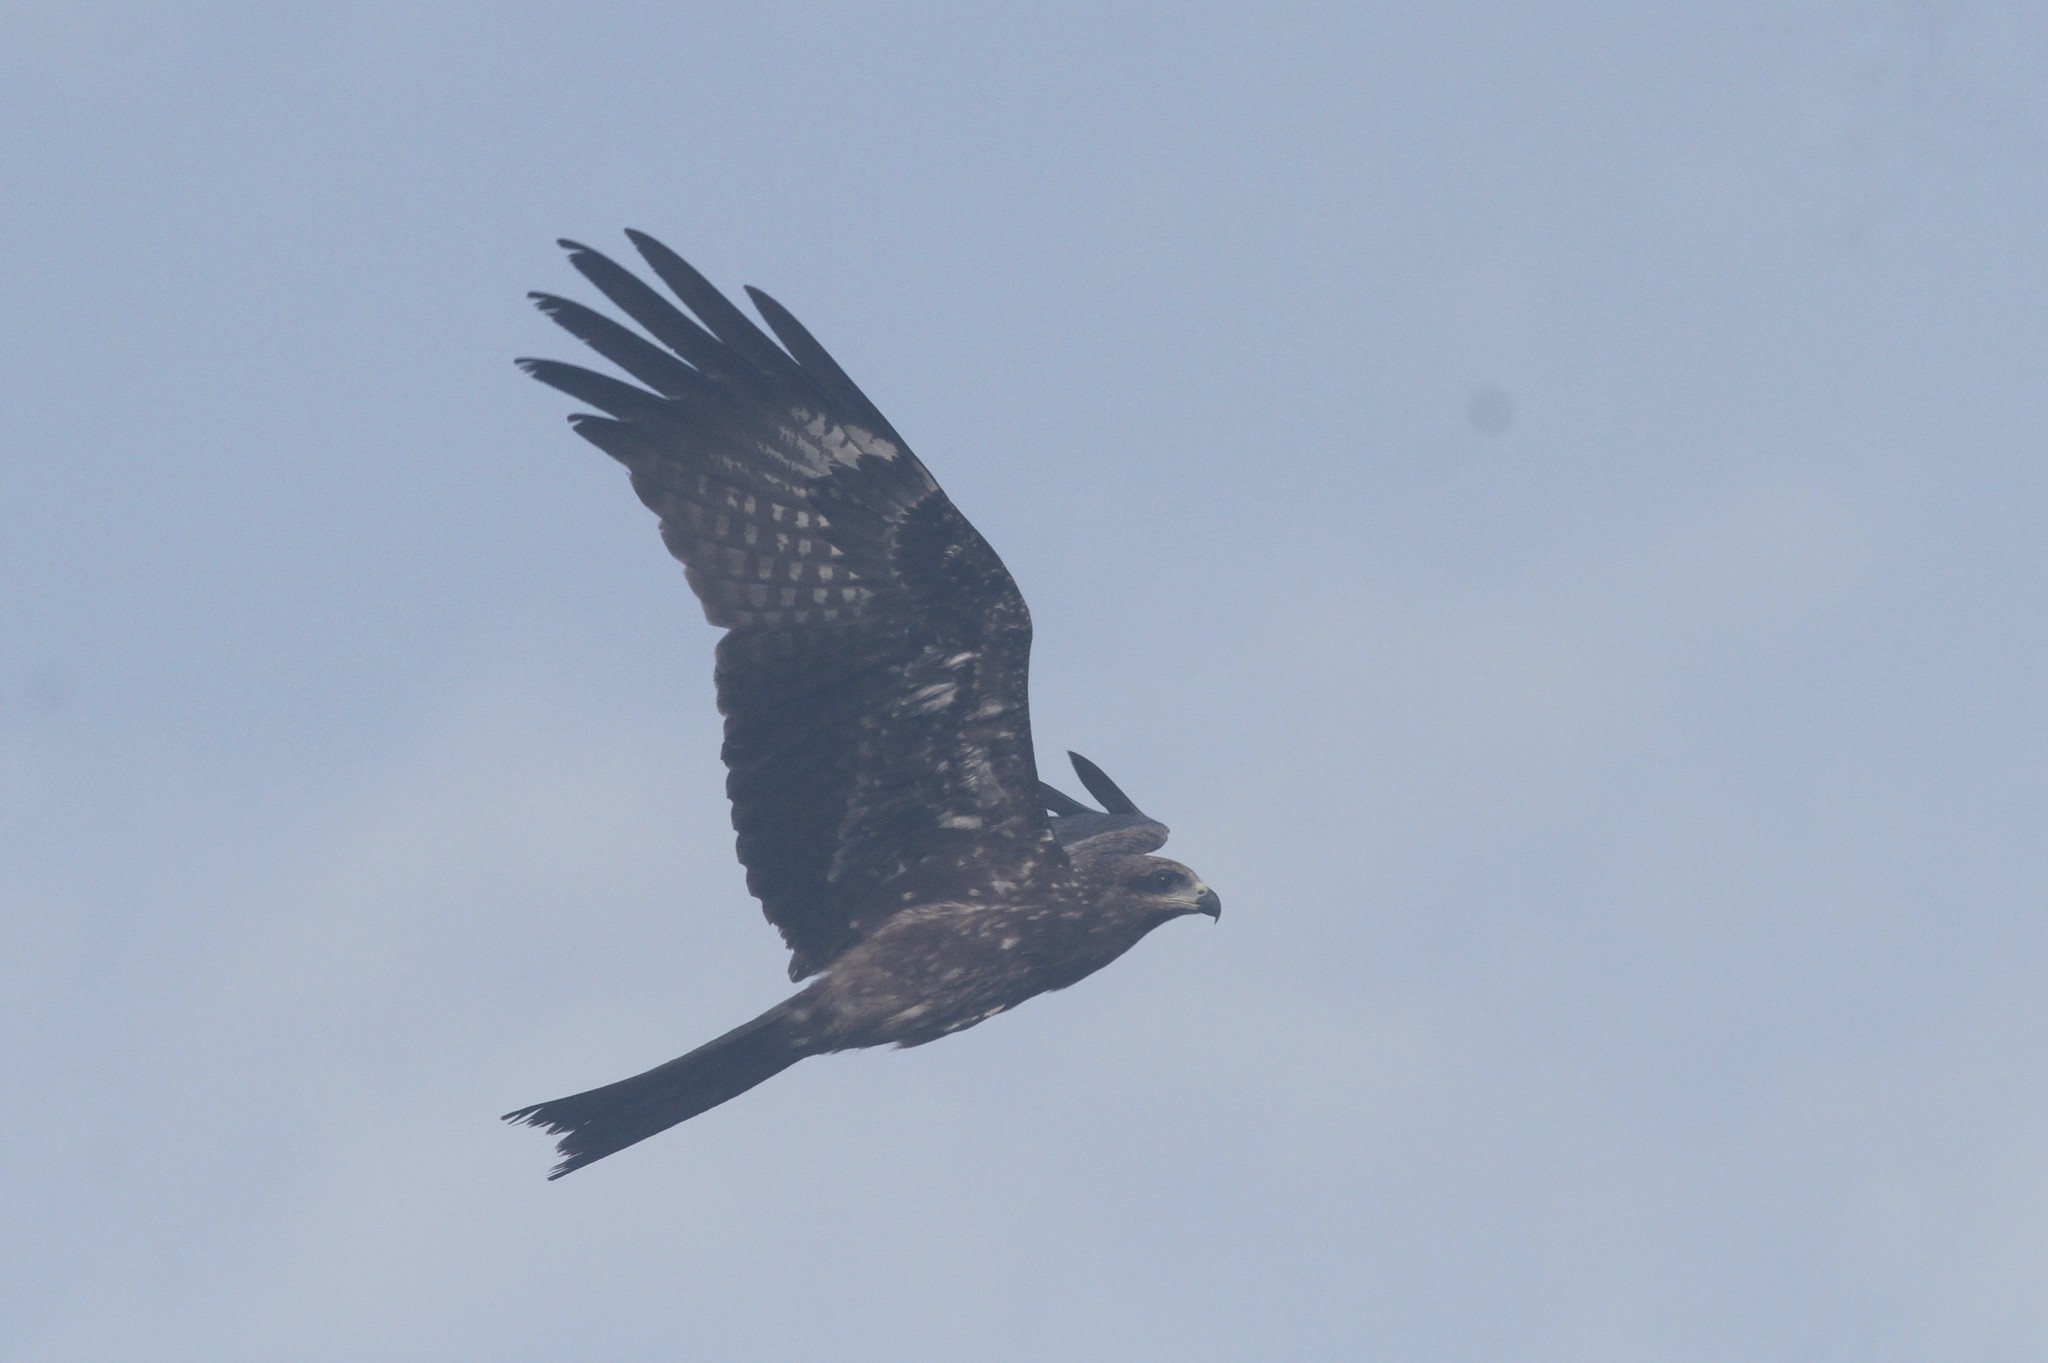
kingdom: Animalia
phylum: Chordata
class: Aves
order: Accipitriformes
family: Accipitridae
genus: Milvus
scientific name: Milvus migrans
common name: Black kite
